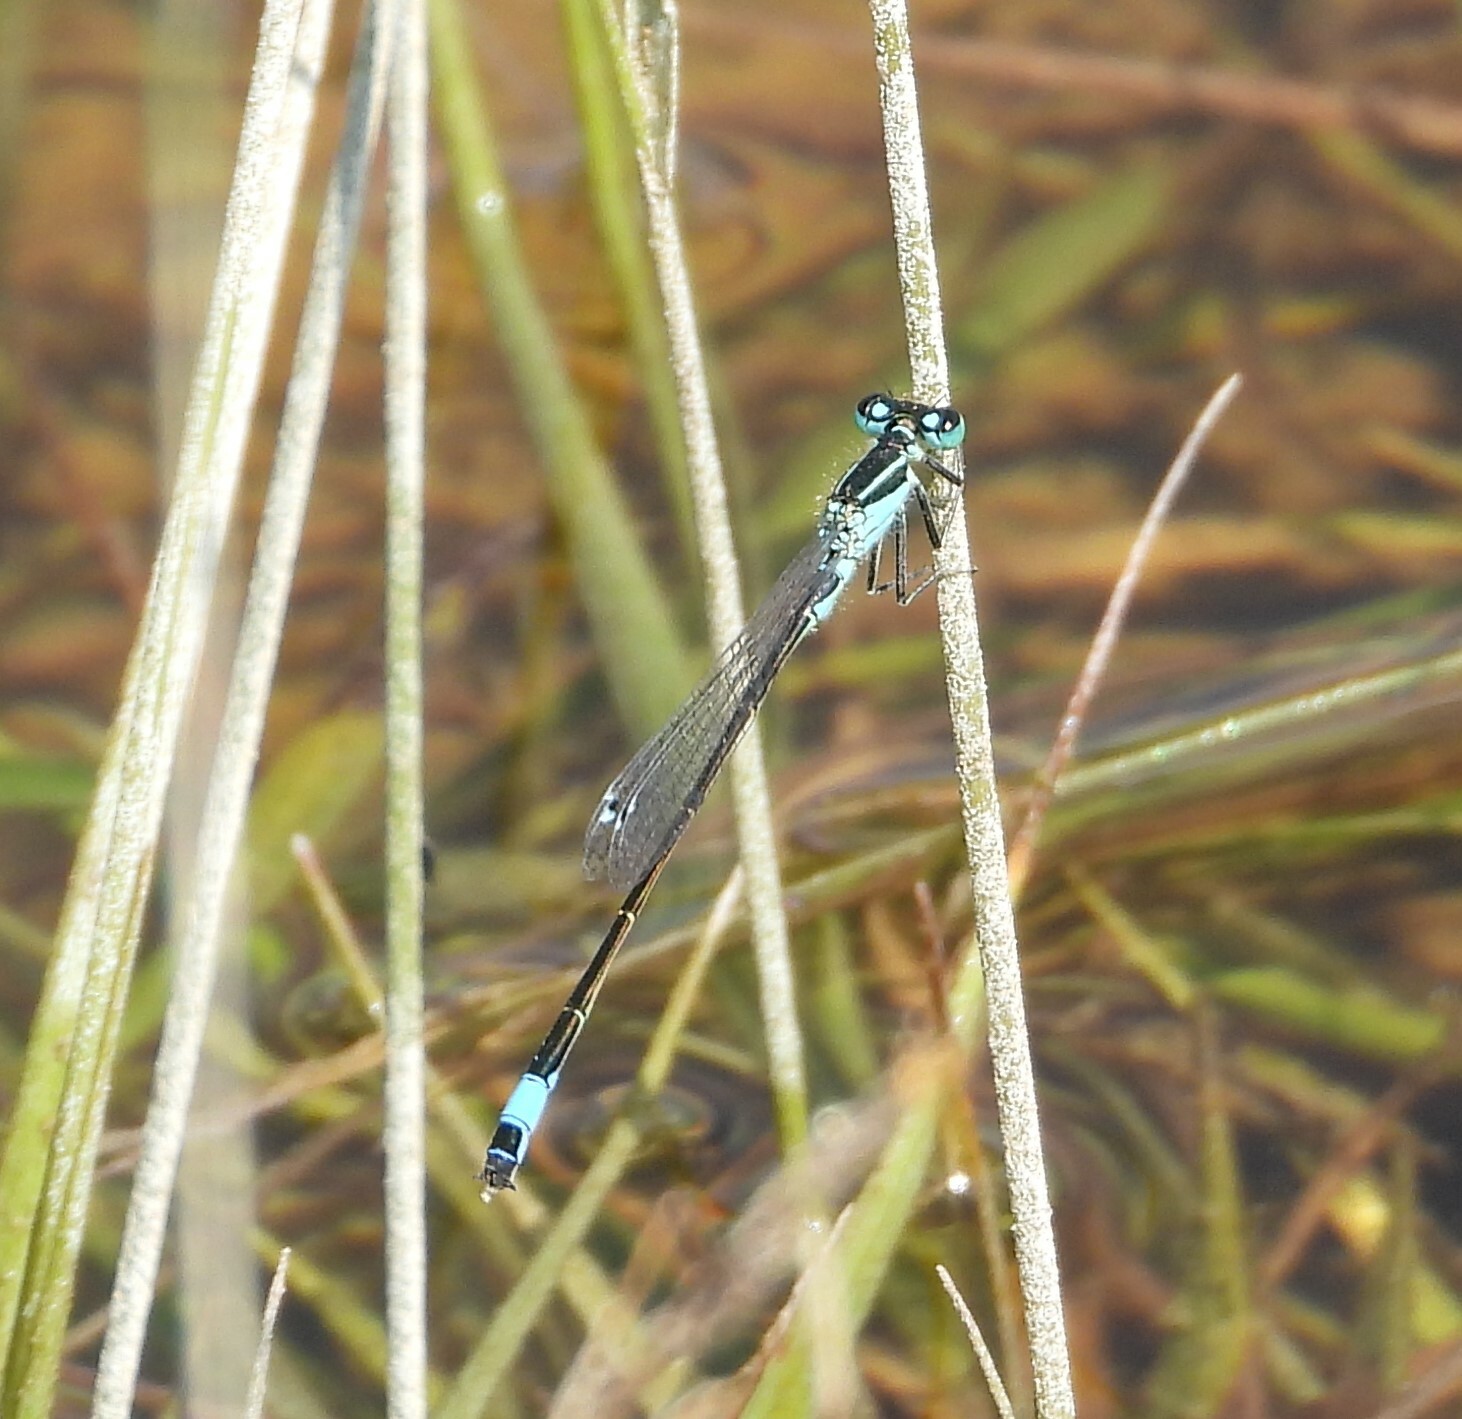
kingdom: Animalia
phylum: Arthropoda
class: Insecta
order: Odonata
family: Coenagrionidae
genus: Ischnura
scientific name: Ischnura elegans
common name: Blue-tailed damselfly
